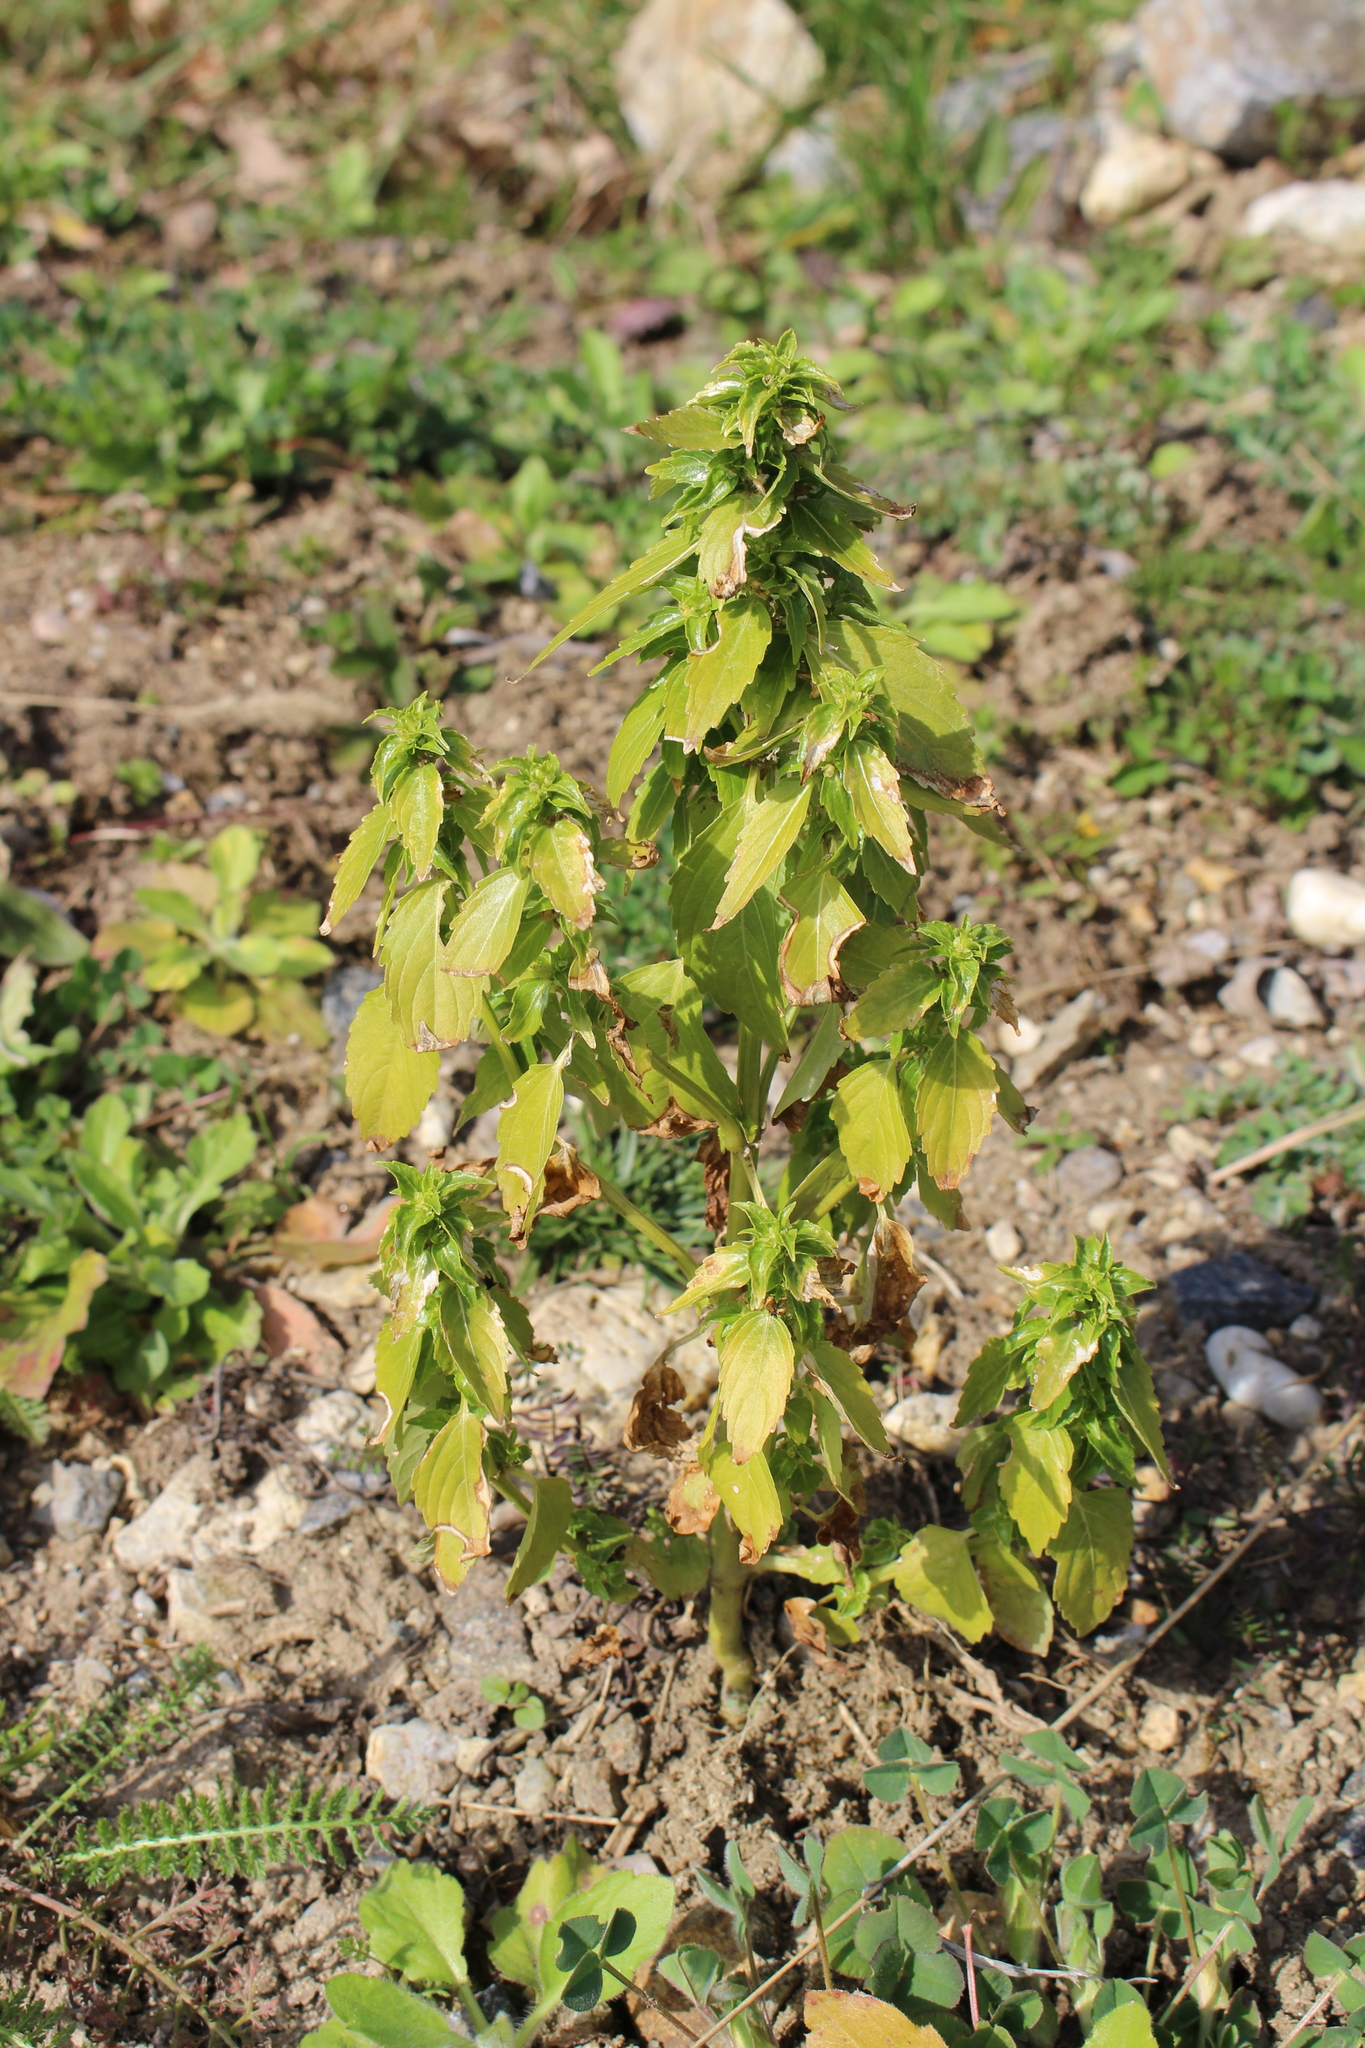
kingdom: Plantae
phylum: Tracheophyta
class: Magnoliopsida
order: Malpighiales
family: Euphorbiaceae
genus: Mercurialis
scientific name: Mercurialis annua
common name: Annual mercury
